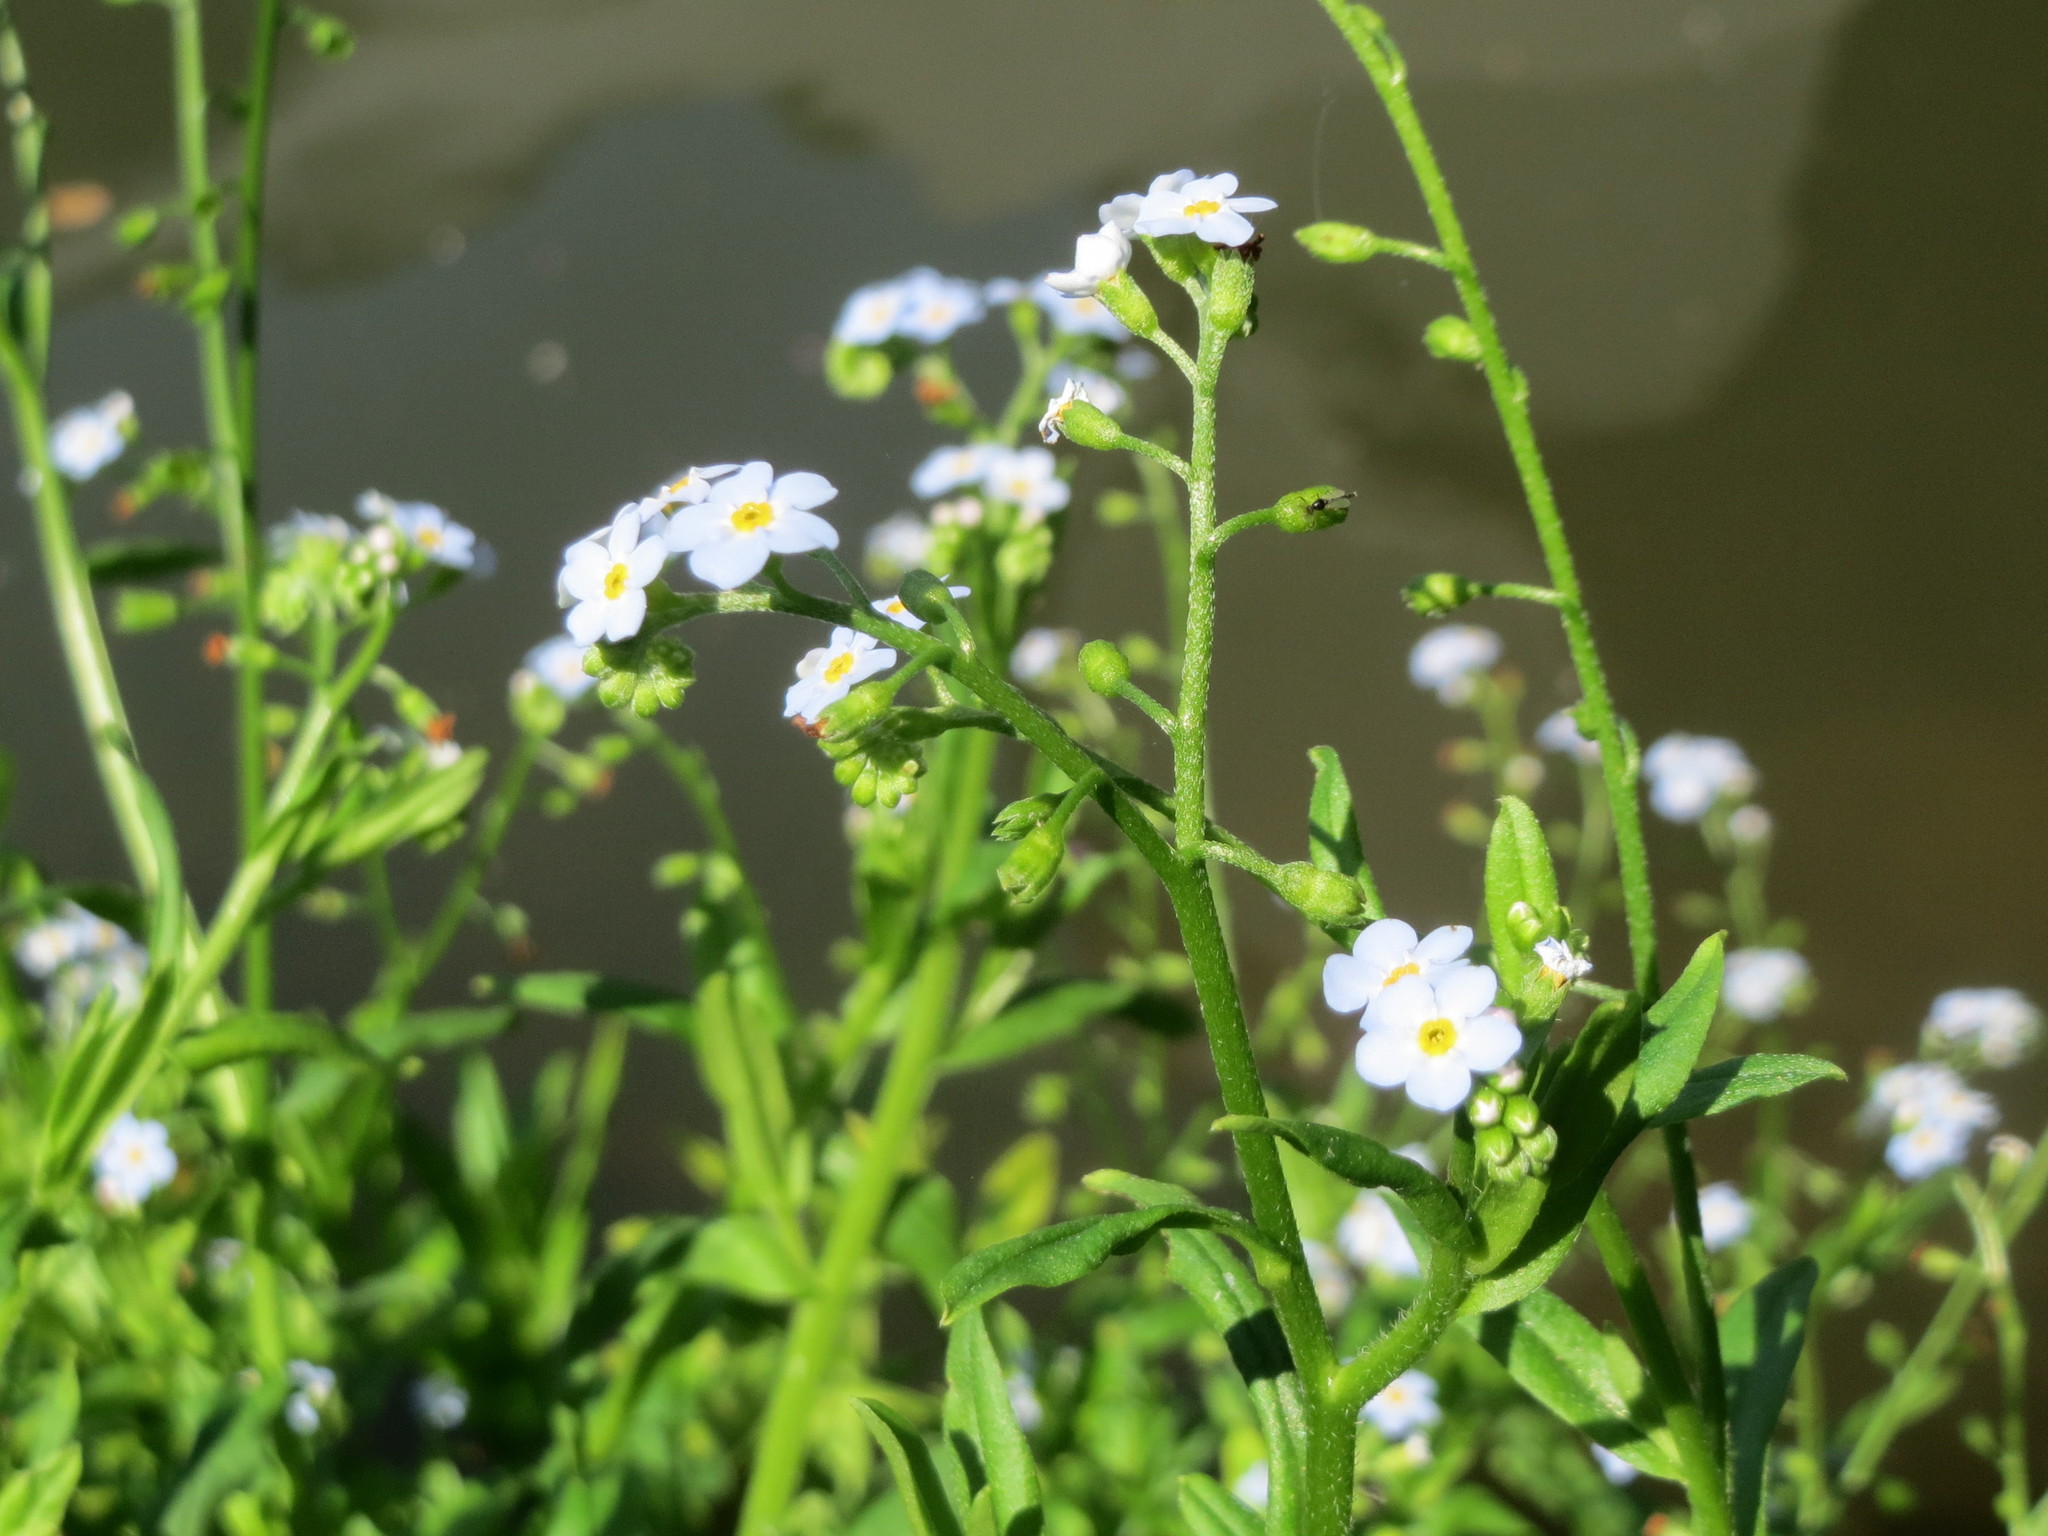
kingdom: Plantae
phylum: Tracheophyta
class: Magnoliopsida
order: Boraginales
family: Boraginaceae
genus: Myosotis
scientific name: Myosotis scorpioides
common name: Water forget-me-not
